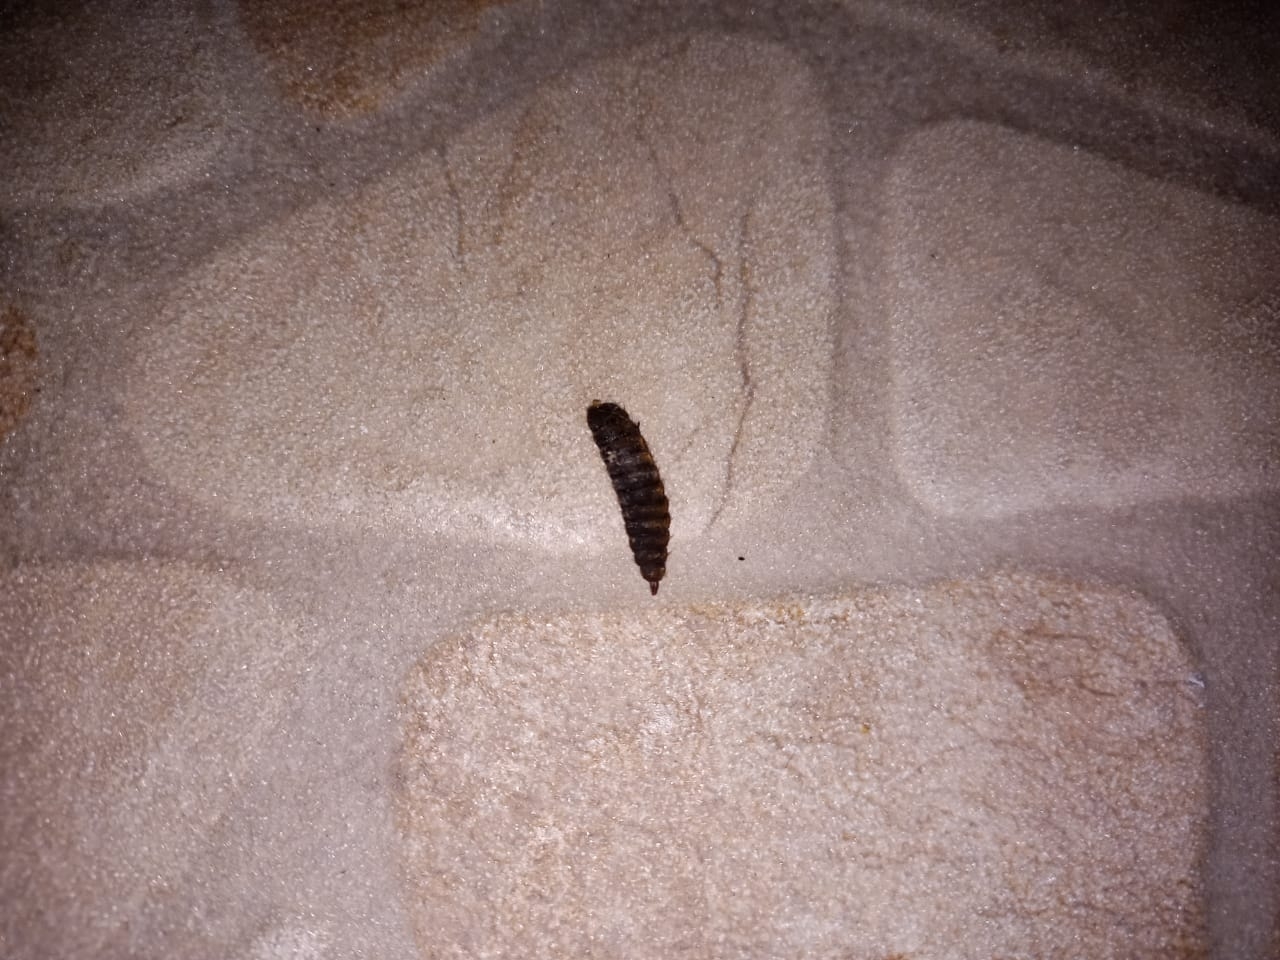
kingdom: Animalia
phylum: Arthropoda
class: Insecta
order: Diptera
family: Stratiomyidae
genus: Hermetia
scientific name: Hermetia illucens
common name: Black soldier fly
